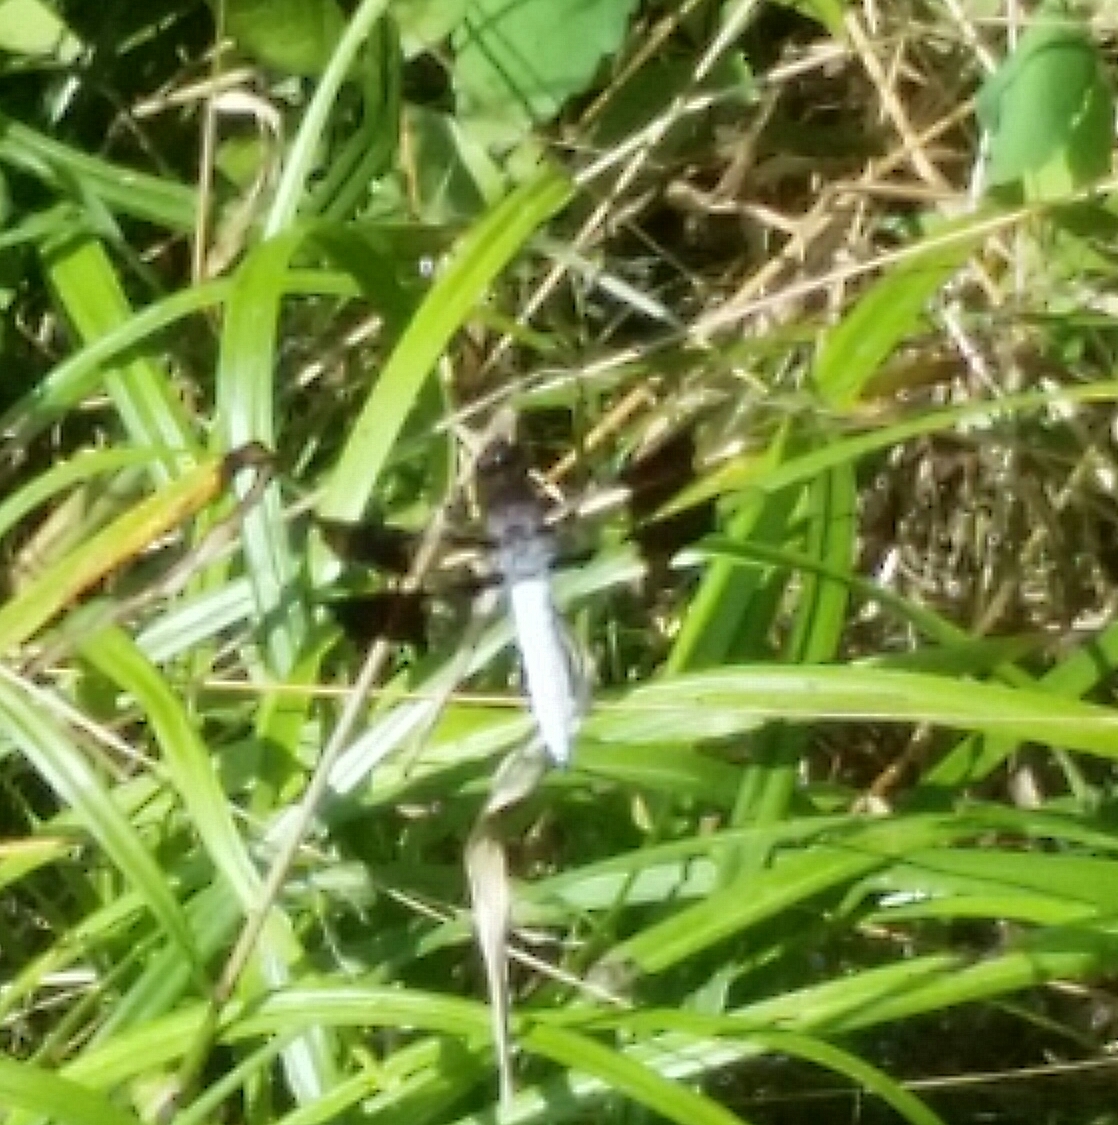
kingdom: Animalia
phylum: Arthropoda
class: Insecta
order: Odonata
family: Libellulidae
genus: Plathemis
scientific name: Plathemis lydia
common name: Common whitetail
